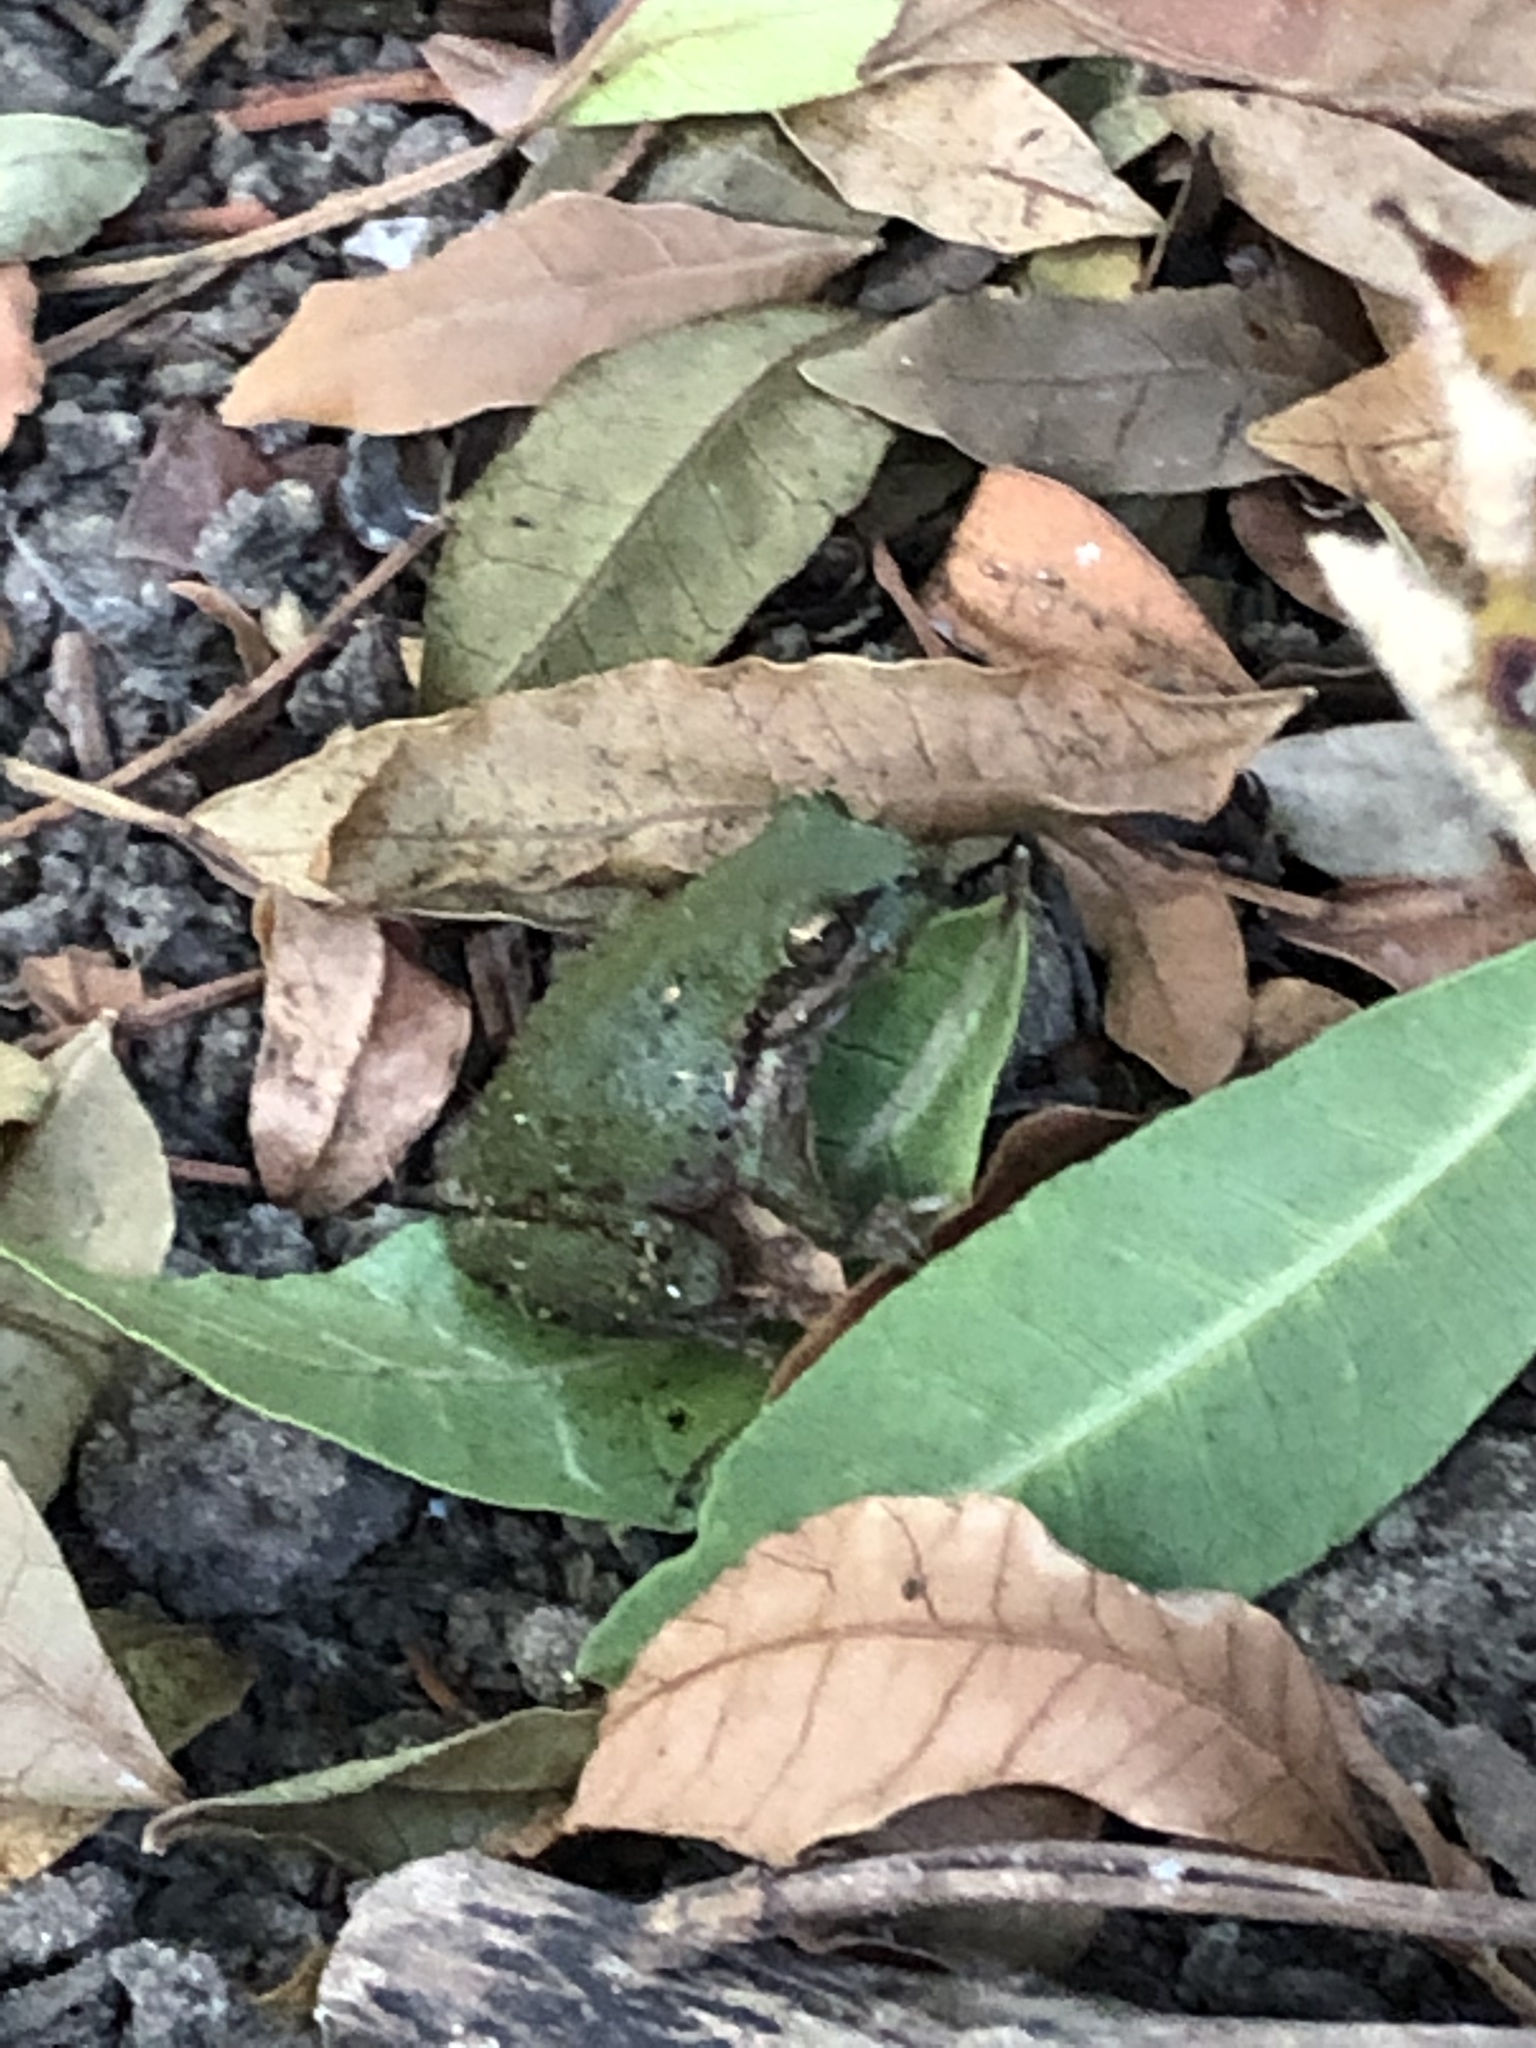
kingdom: Animalia
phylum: Chordata
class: Amphibia
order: Anura
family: Hylidae
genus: Pseudacris
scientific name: Pseudacris regilla
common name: Pacific chorus frog
